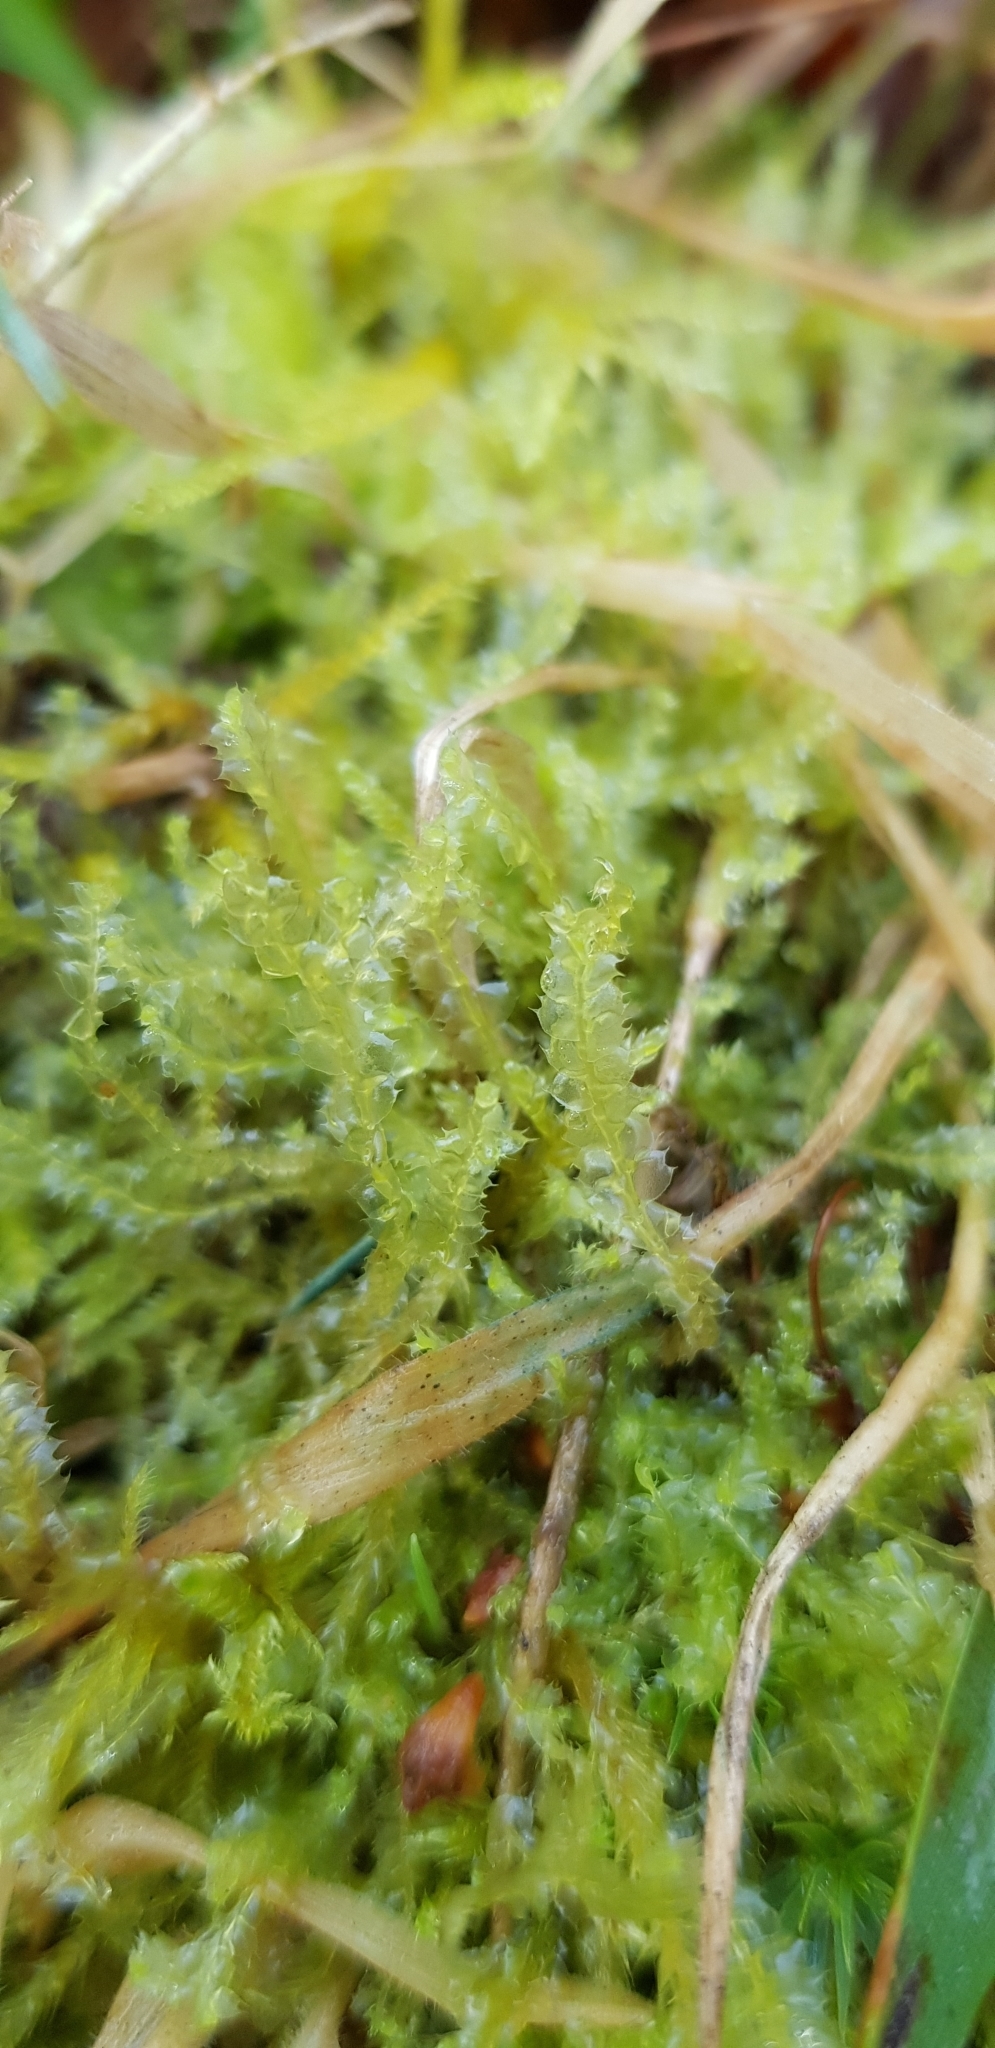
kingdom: Plantae
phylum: Marchantiophyta
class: Jungermanniopsida
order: Jungermanniales
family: Lophocoleaceae
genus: Lophocolea
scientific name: Lophocolea bidentata
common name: Bifid crestwort
